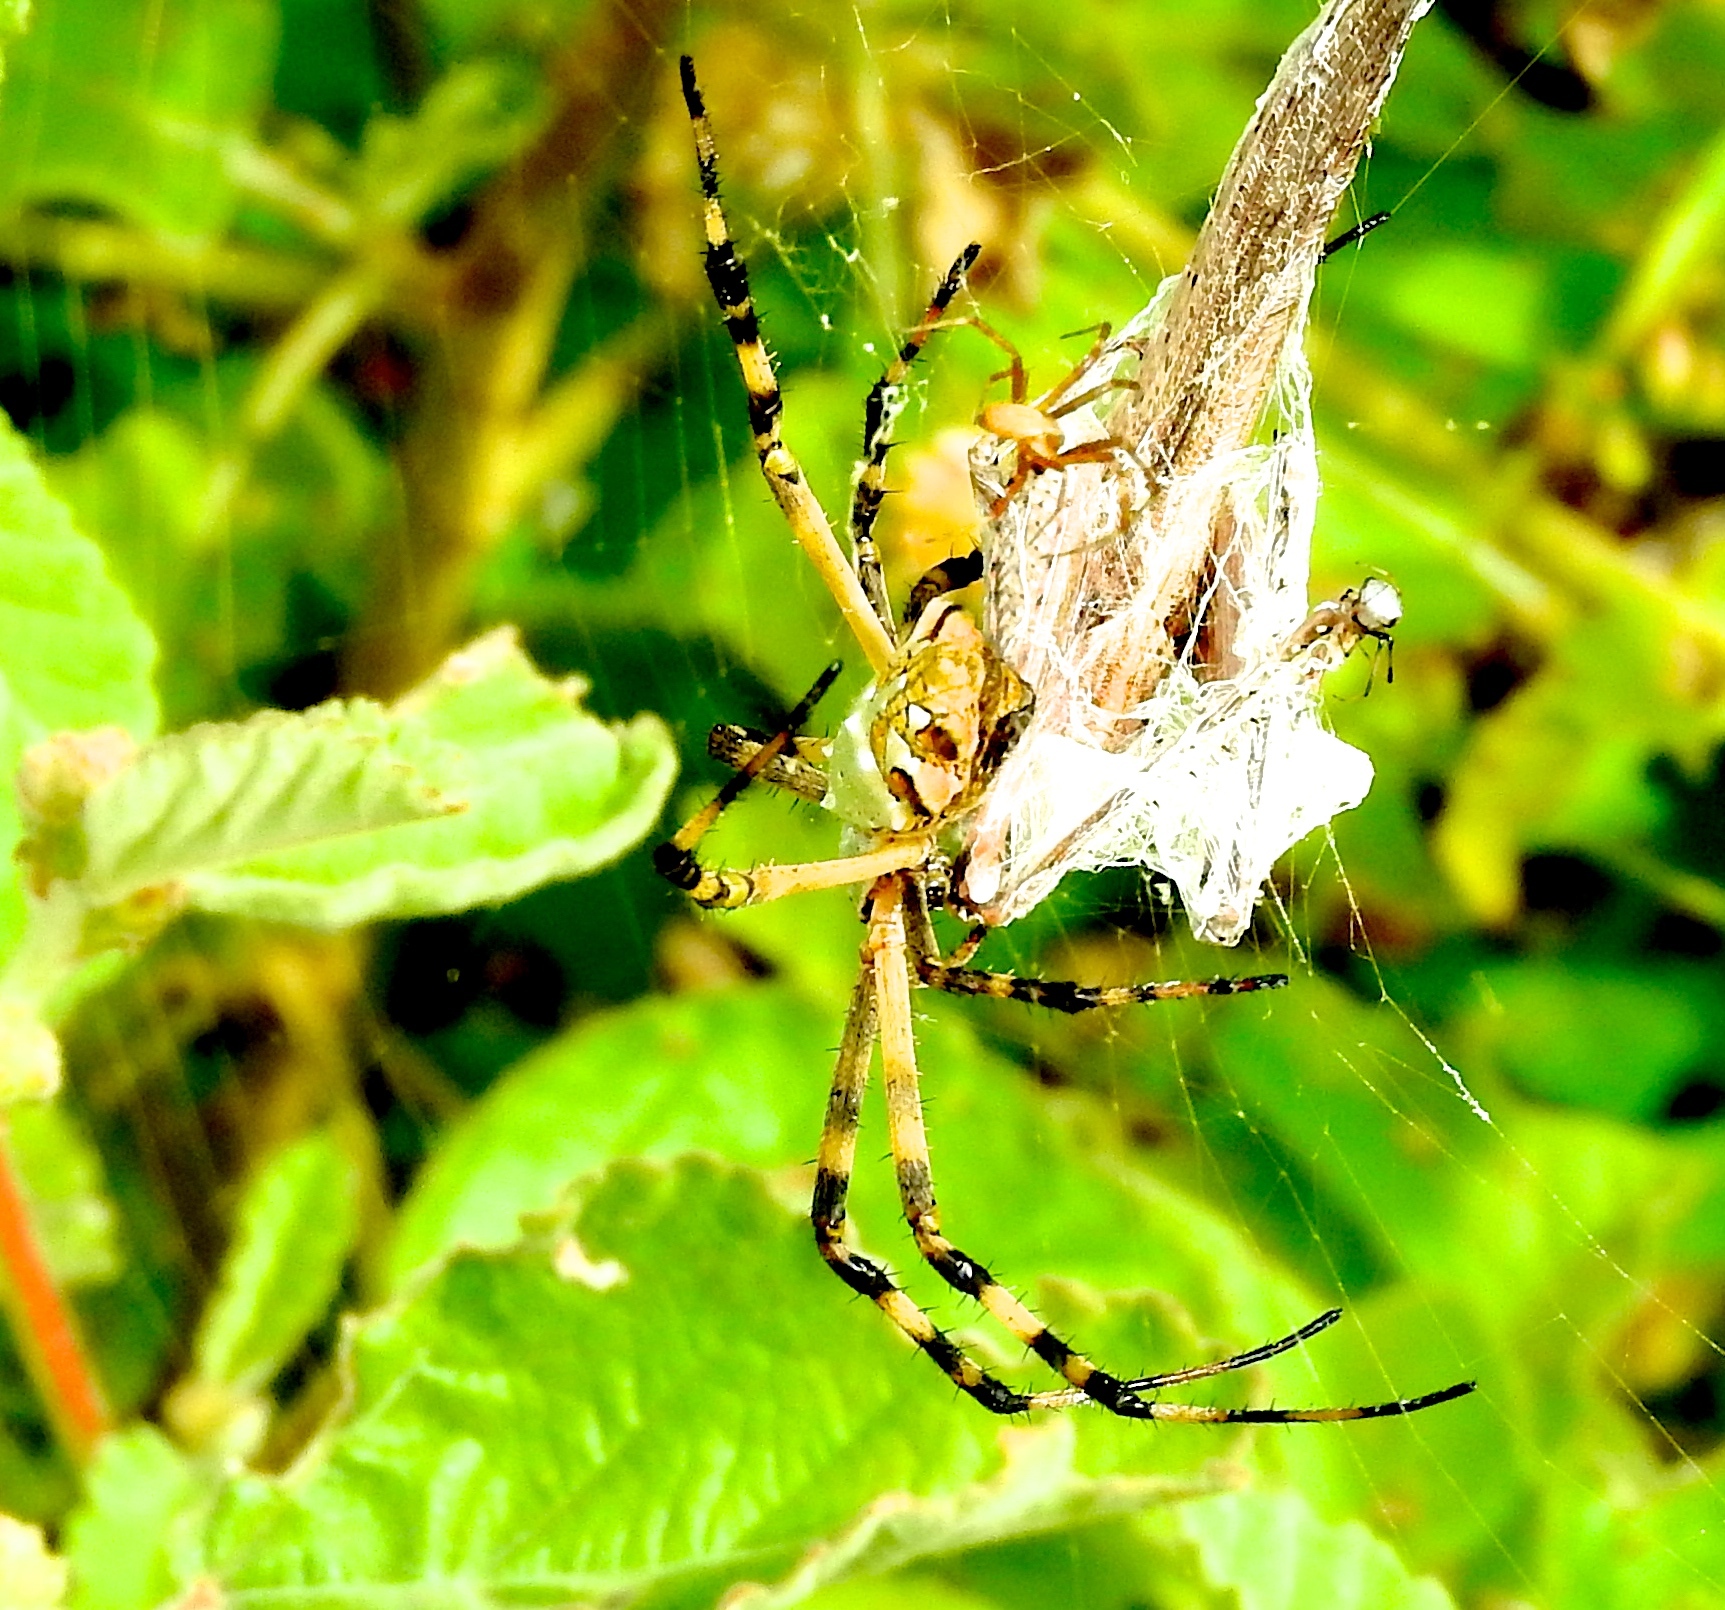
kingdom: Animalia
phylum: Arthropoda
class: Arachnida
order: Araneae
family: Araneidae
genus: Argiope
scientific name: Argiope argentata
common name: Orb weavers
